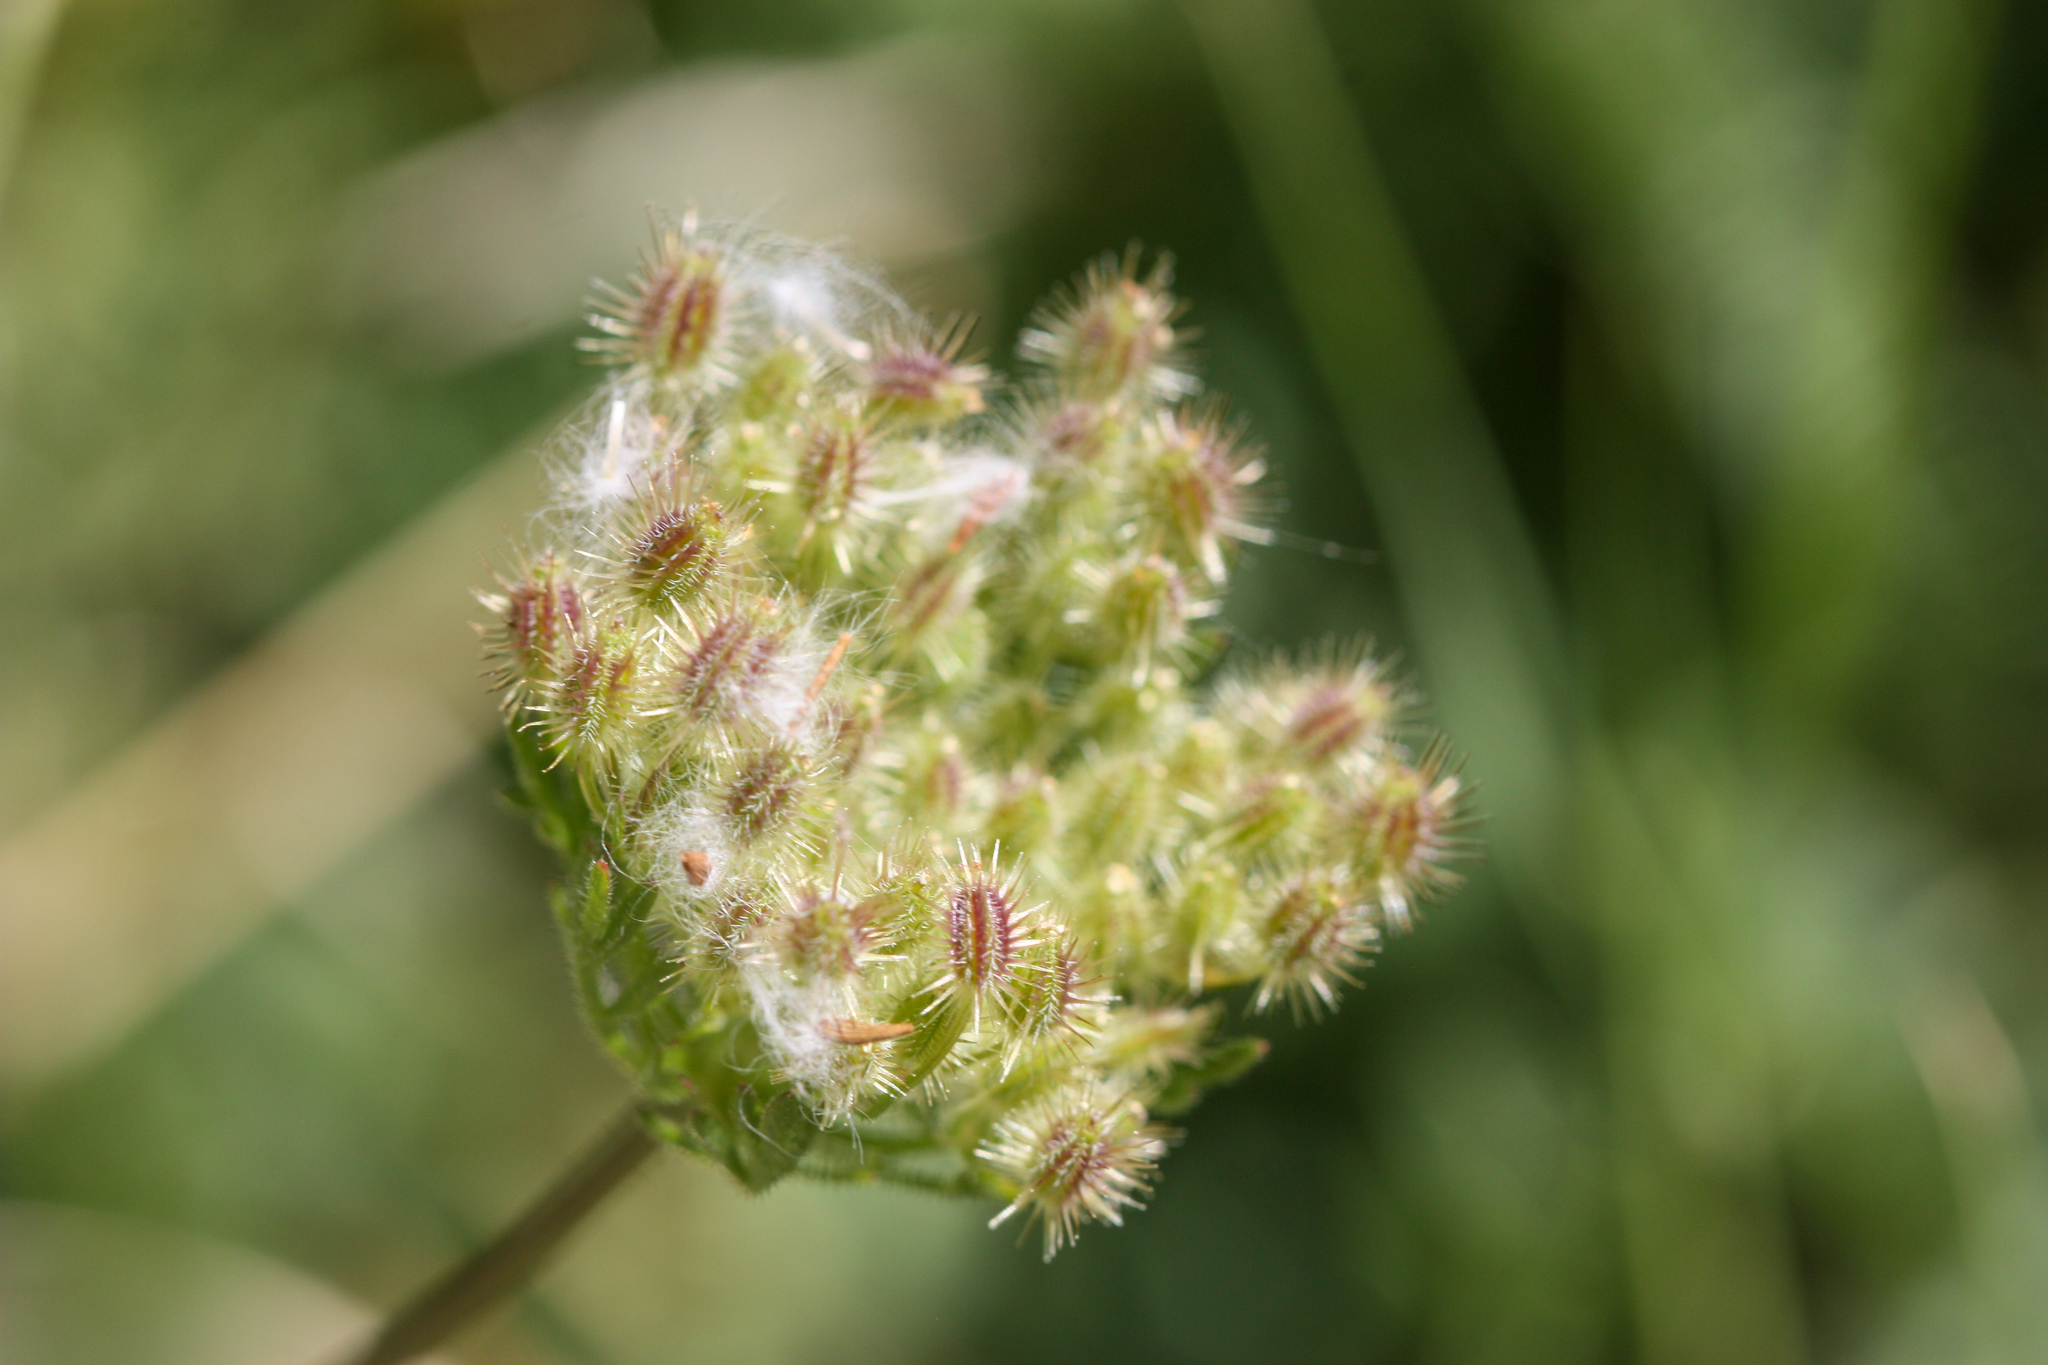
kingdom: Plantae
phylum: Tracheophyta
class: Magnoliopsida
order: Apiales
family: Apiaceae
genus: Daucus
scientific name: Daucus pusillus
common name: Southwest wild carrot
